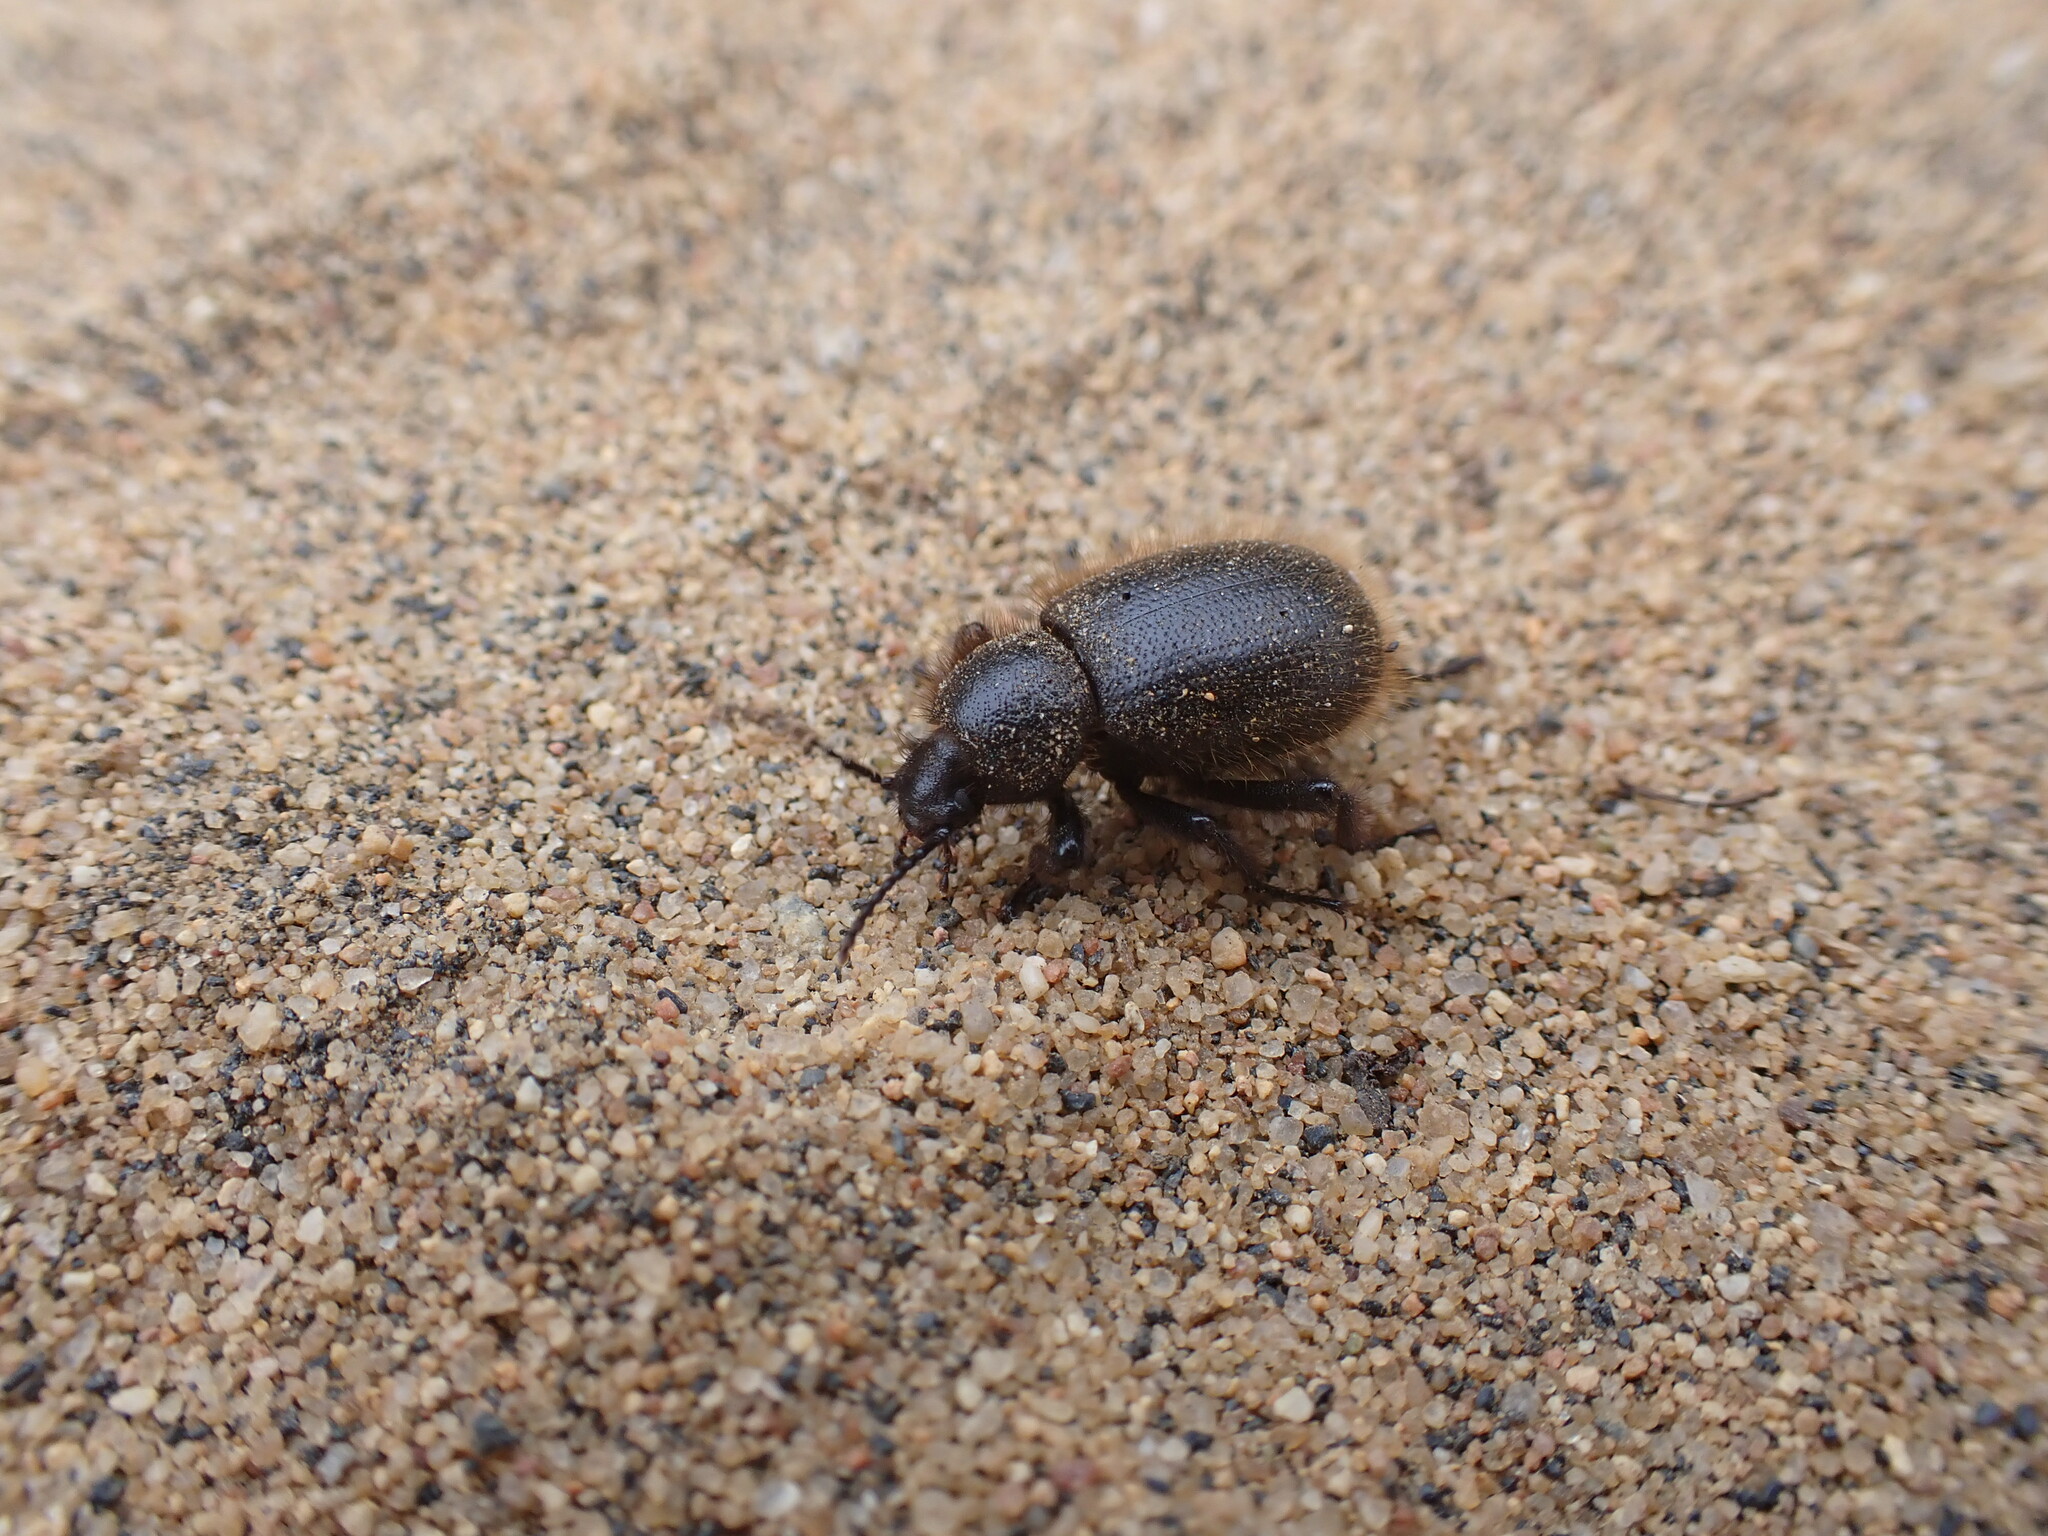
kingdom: Animalia
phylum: Arthropoda
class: Insecta
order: Coleoptera
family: Tenebrionidae
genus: Eleodes
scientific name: Eleodes osculans
